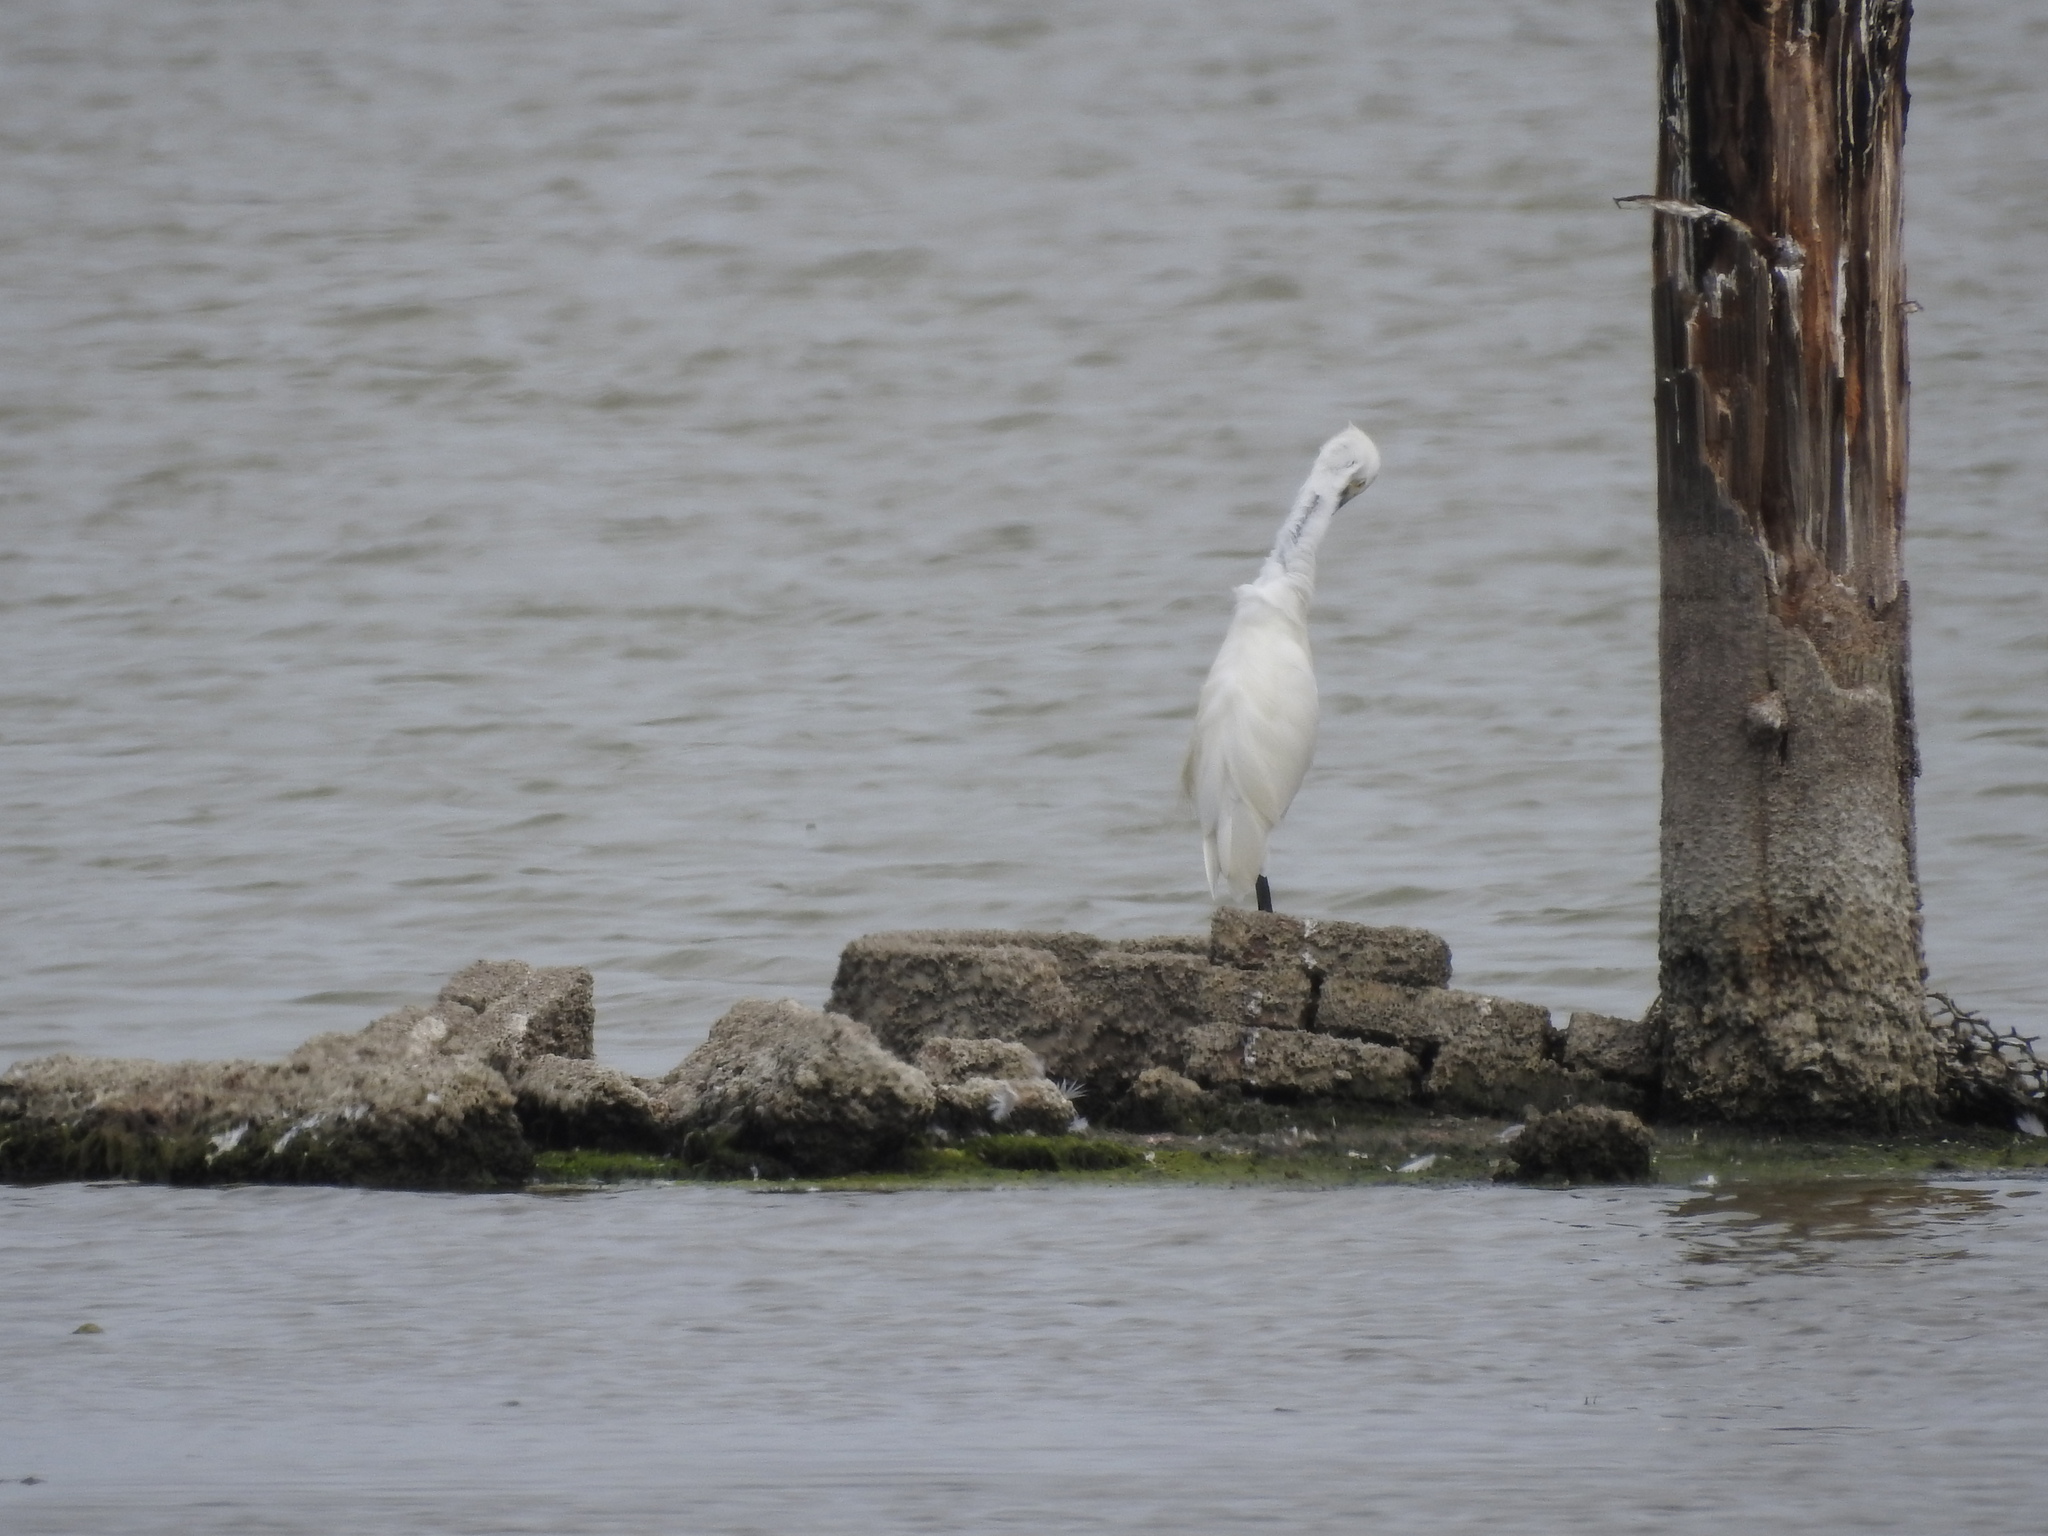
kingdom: Animalia
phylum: Chordata
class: Aves
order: Pelecaniformes
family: Ardeidae
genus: Egretta
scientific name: Egretta garzetta
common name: Little egret
